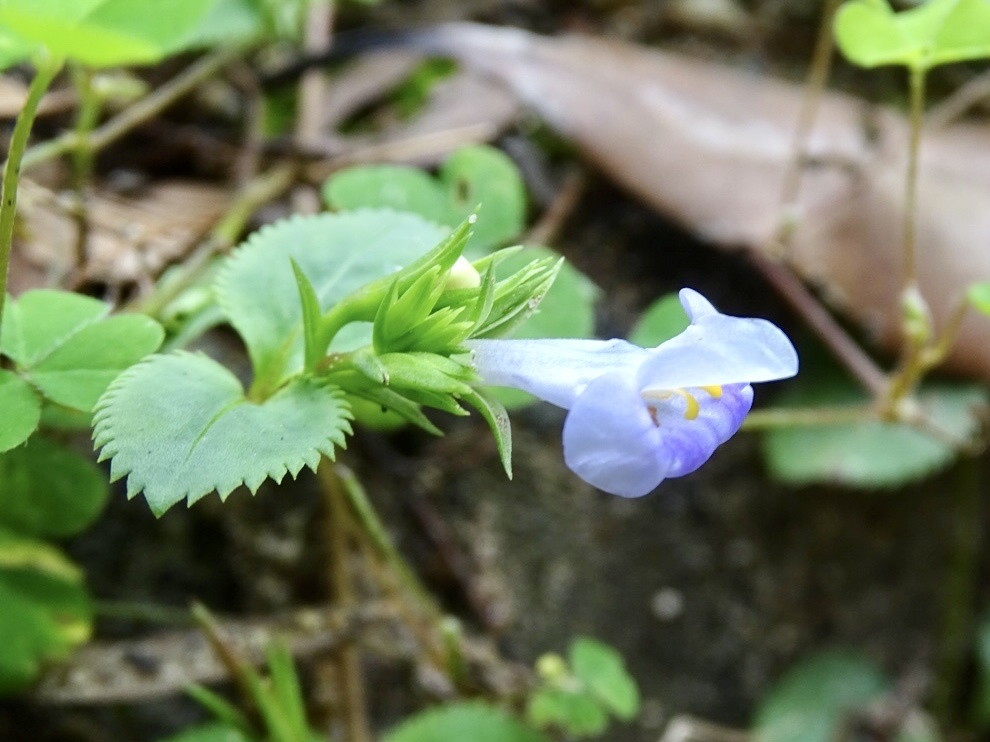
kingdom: Plantae
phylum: Tracheophyta
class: Magnoliopsida
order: Lamiales
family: Linderniaceae
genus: Bonnaya
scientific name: Bonnaya ruelloides
